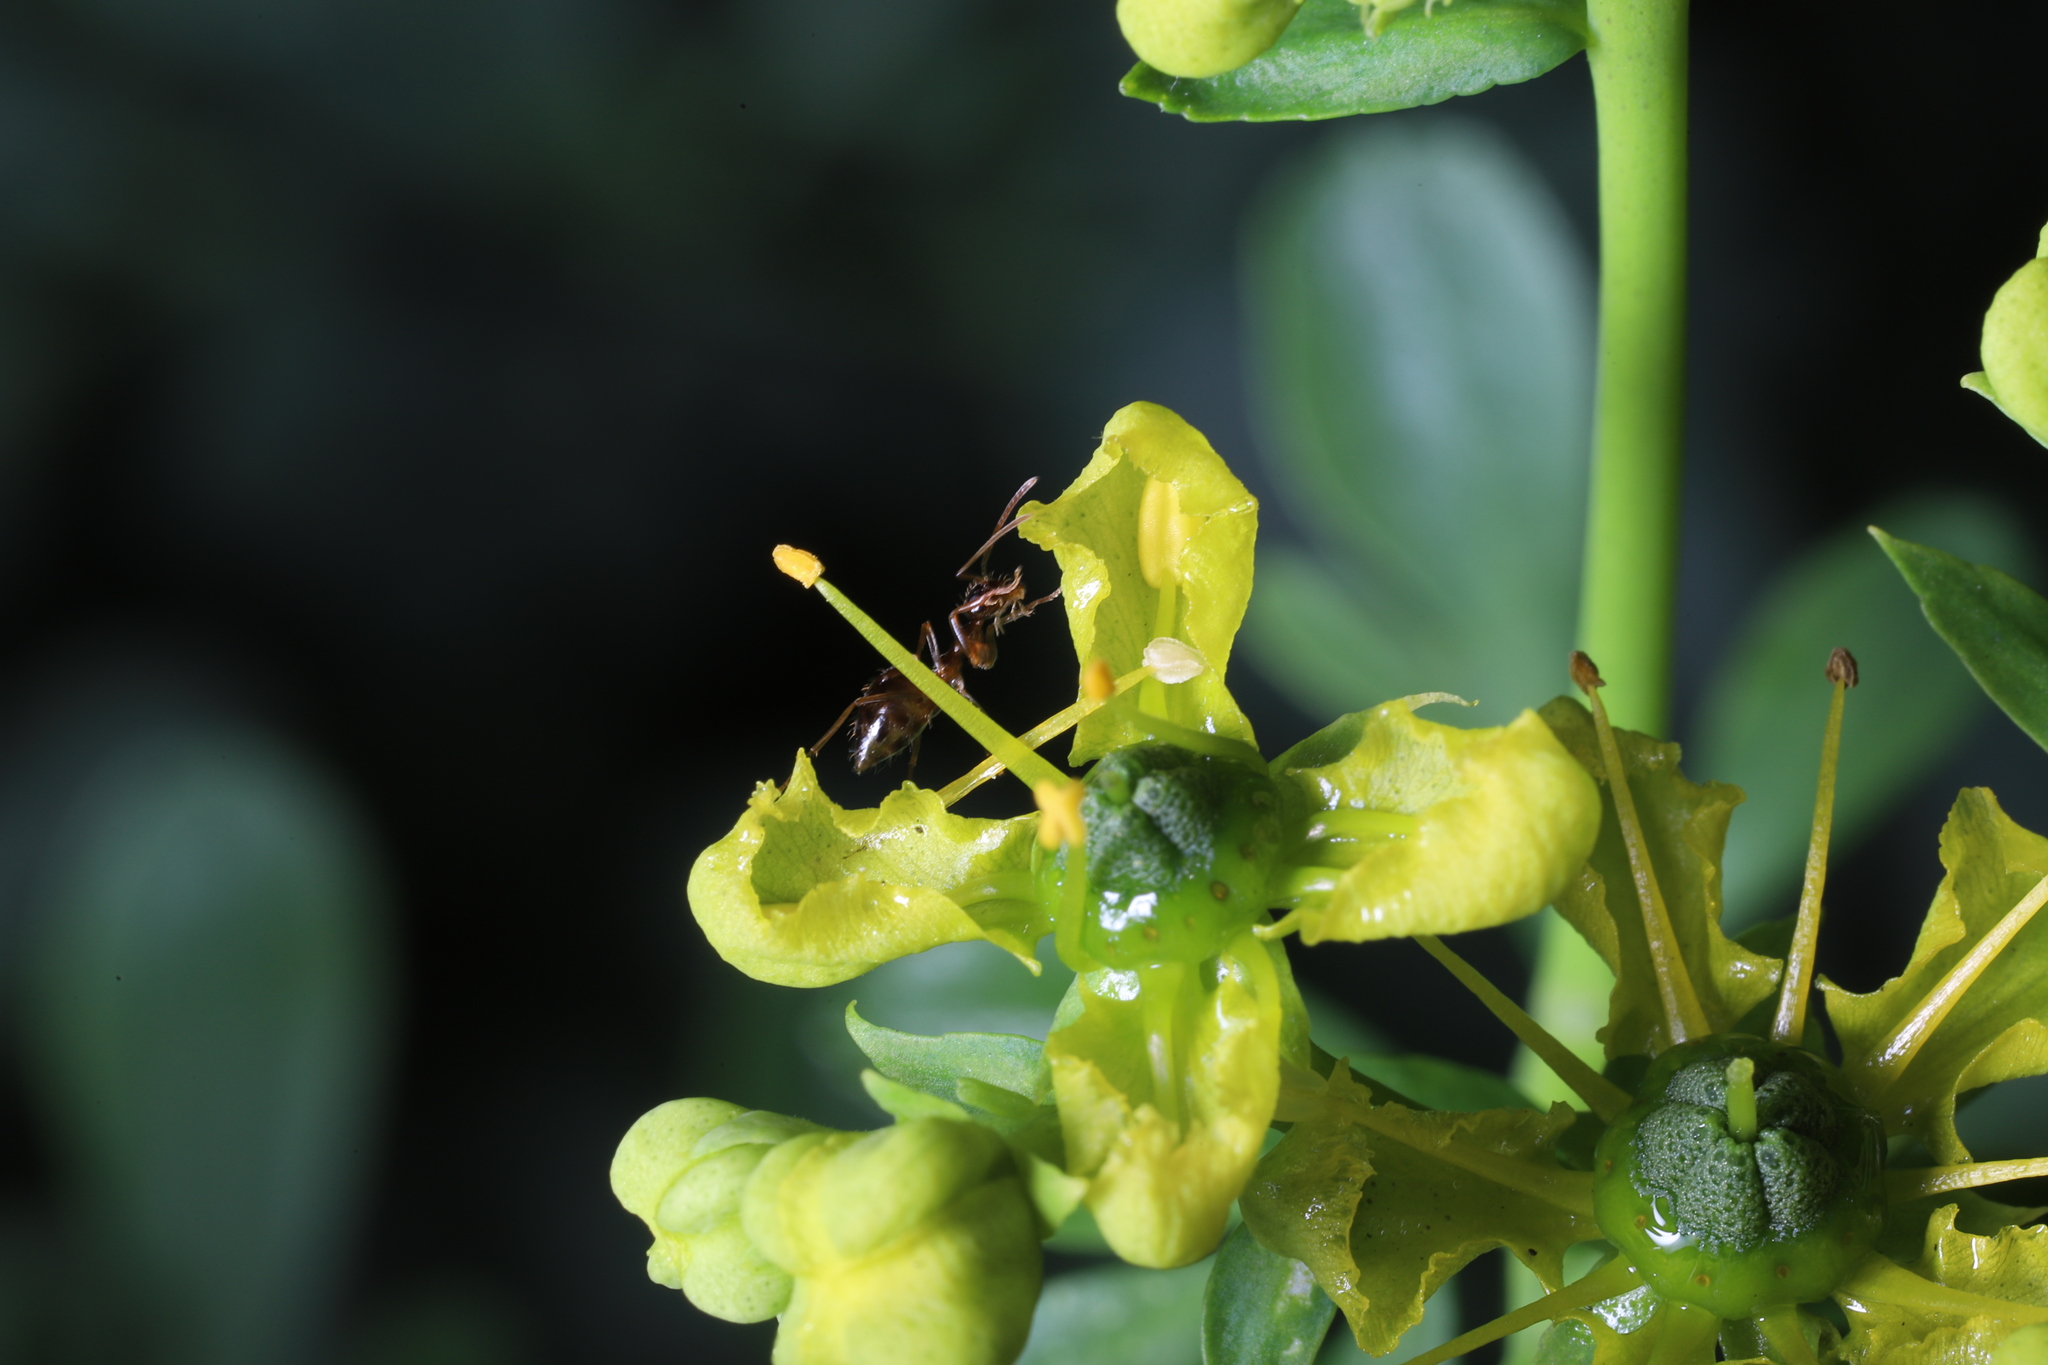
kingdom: Animalia
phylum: Arthropoda
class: Insecta
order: Hymenoptera
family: Formicidae
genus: Prenolepis
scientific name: Prenolepis imparis
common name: Small honey ant
